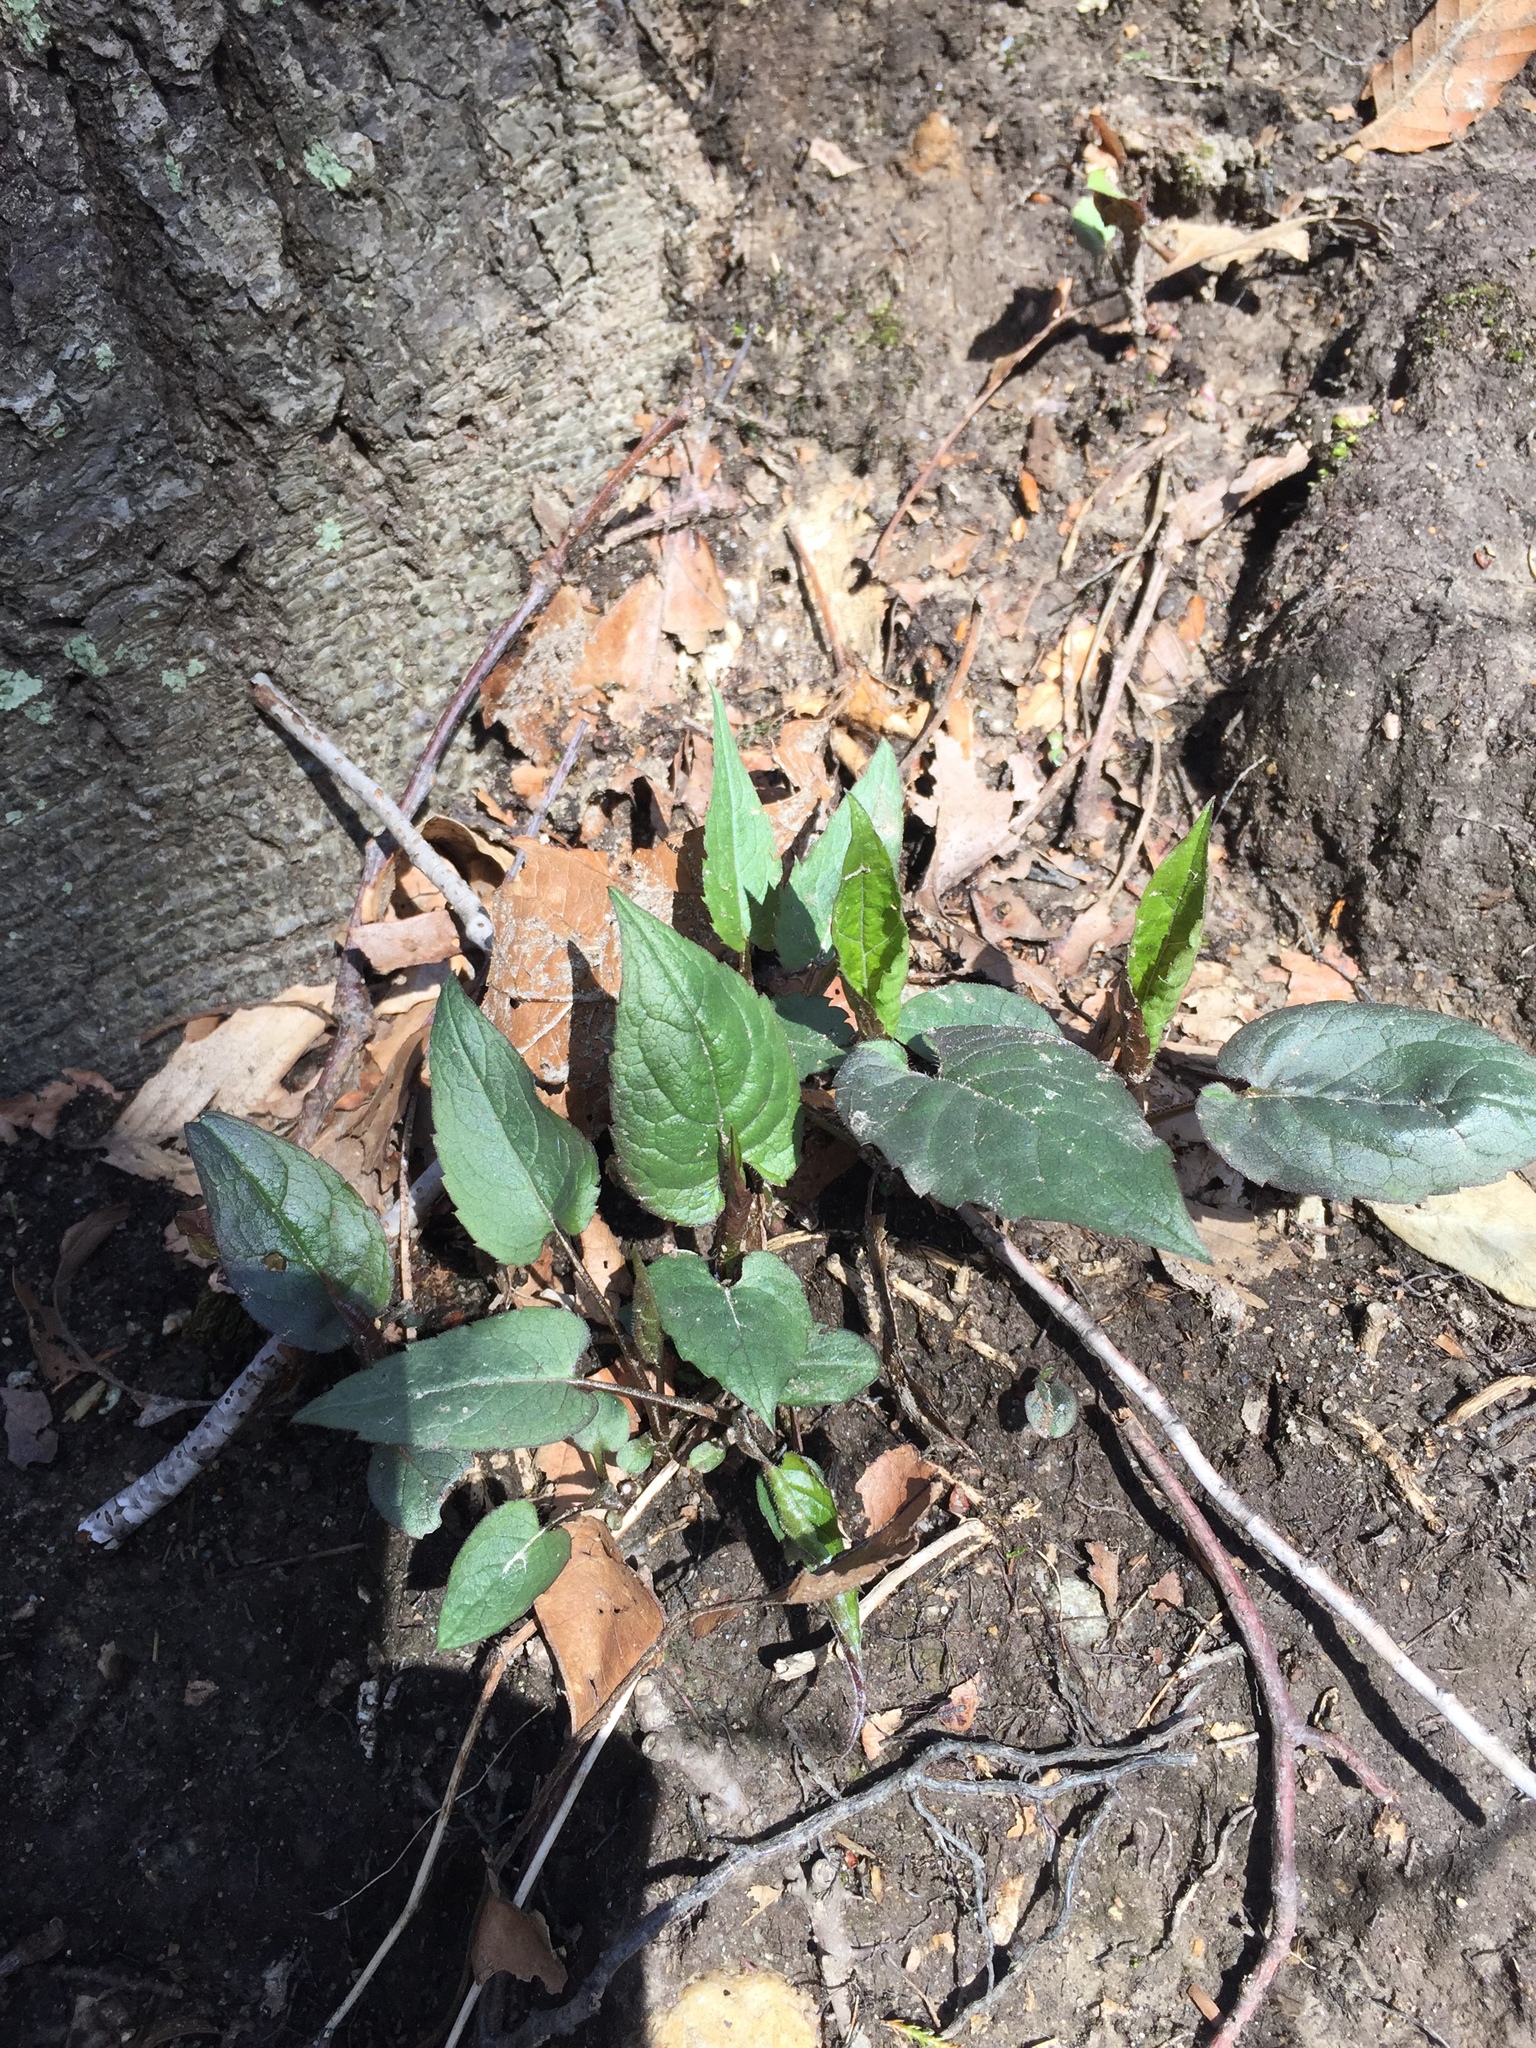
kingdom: Plantae
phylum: Tracheophyta
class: Magnoliopsida
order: Asterales
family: Asteraceae
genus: Symphyotrichum
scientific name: Symphyotrichum cordifolium
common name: Beeweed
